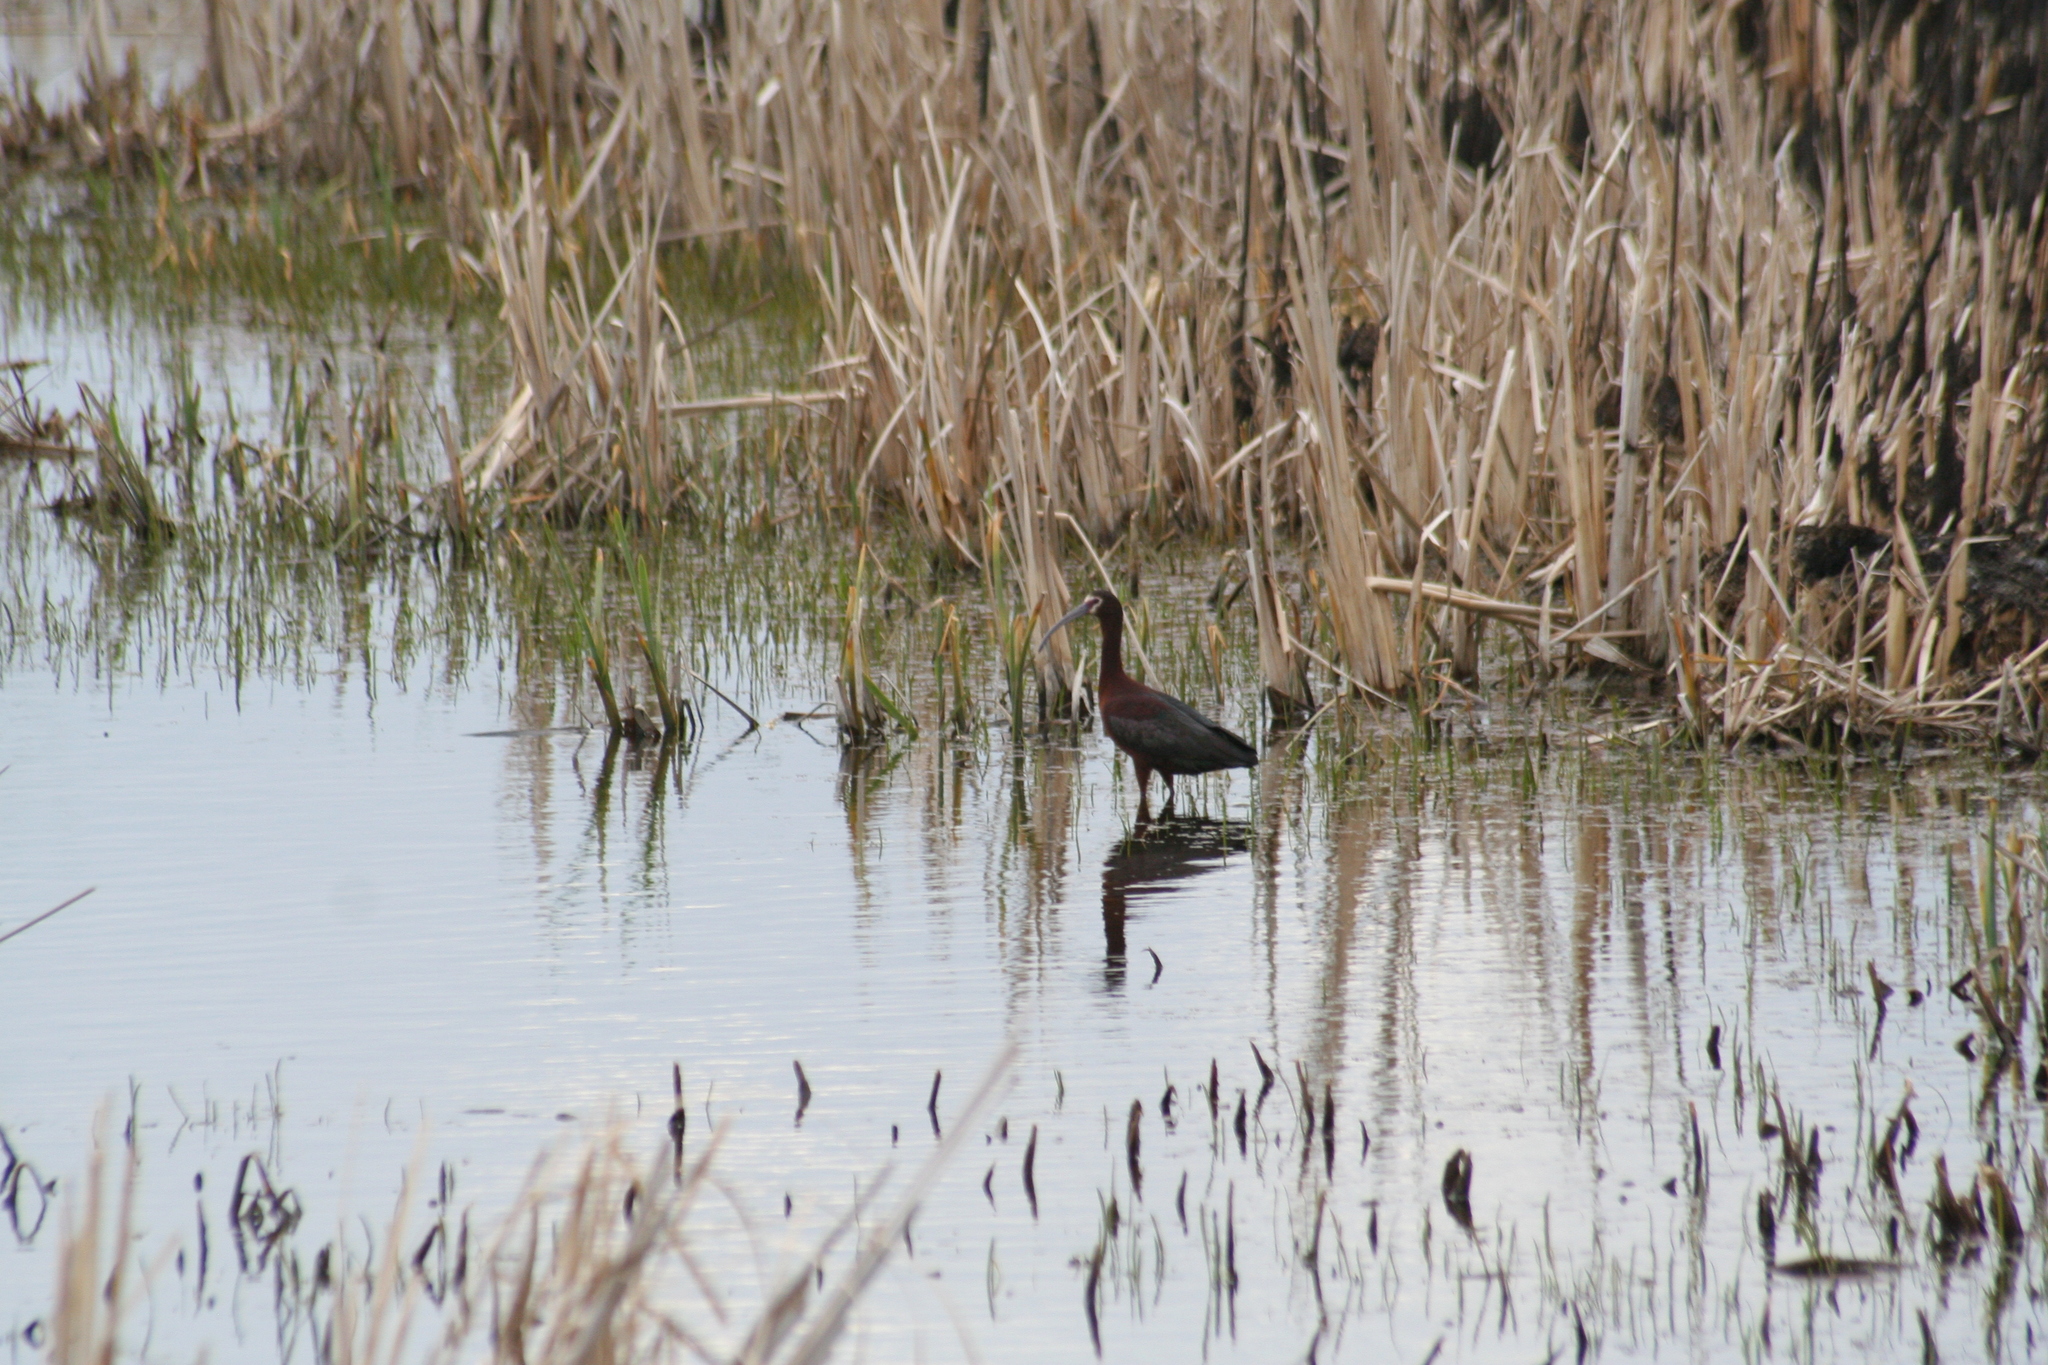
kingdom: Animalia
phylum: Chordata
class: Aves
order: Pelecaniformes
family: Threskiornithidae
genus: Plegadis
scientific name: Plegadis chihi
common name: White-faced ibis
